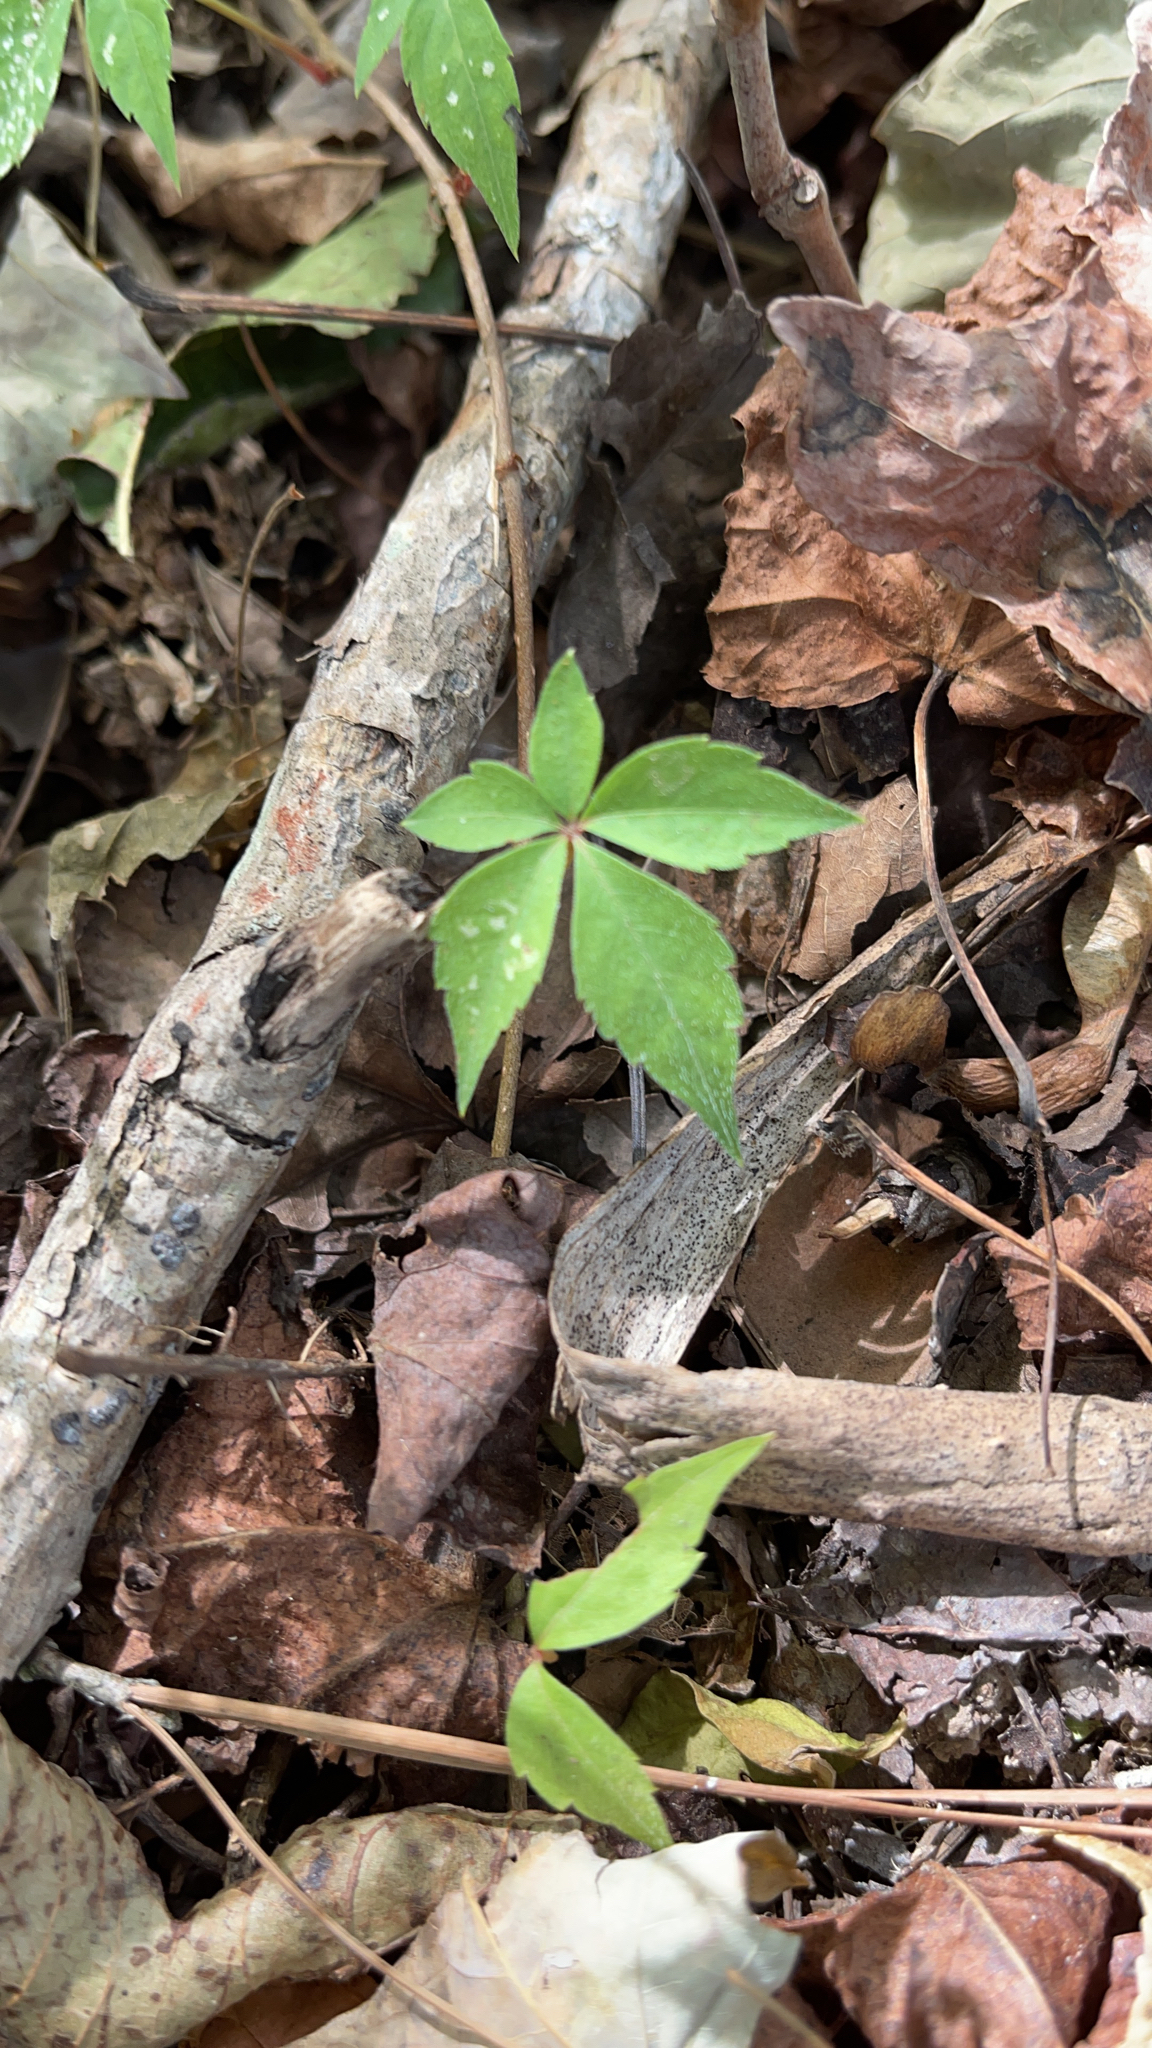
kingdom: Plantae
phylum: Tracheophyta
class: Magnoliopsida
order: Vitales
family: Vitaceae
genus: Parthenocissus
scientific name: Parthenocissus quinquefolia
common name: Virginia-creeper
